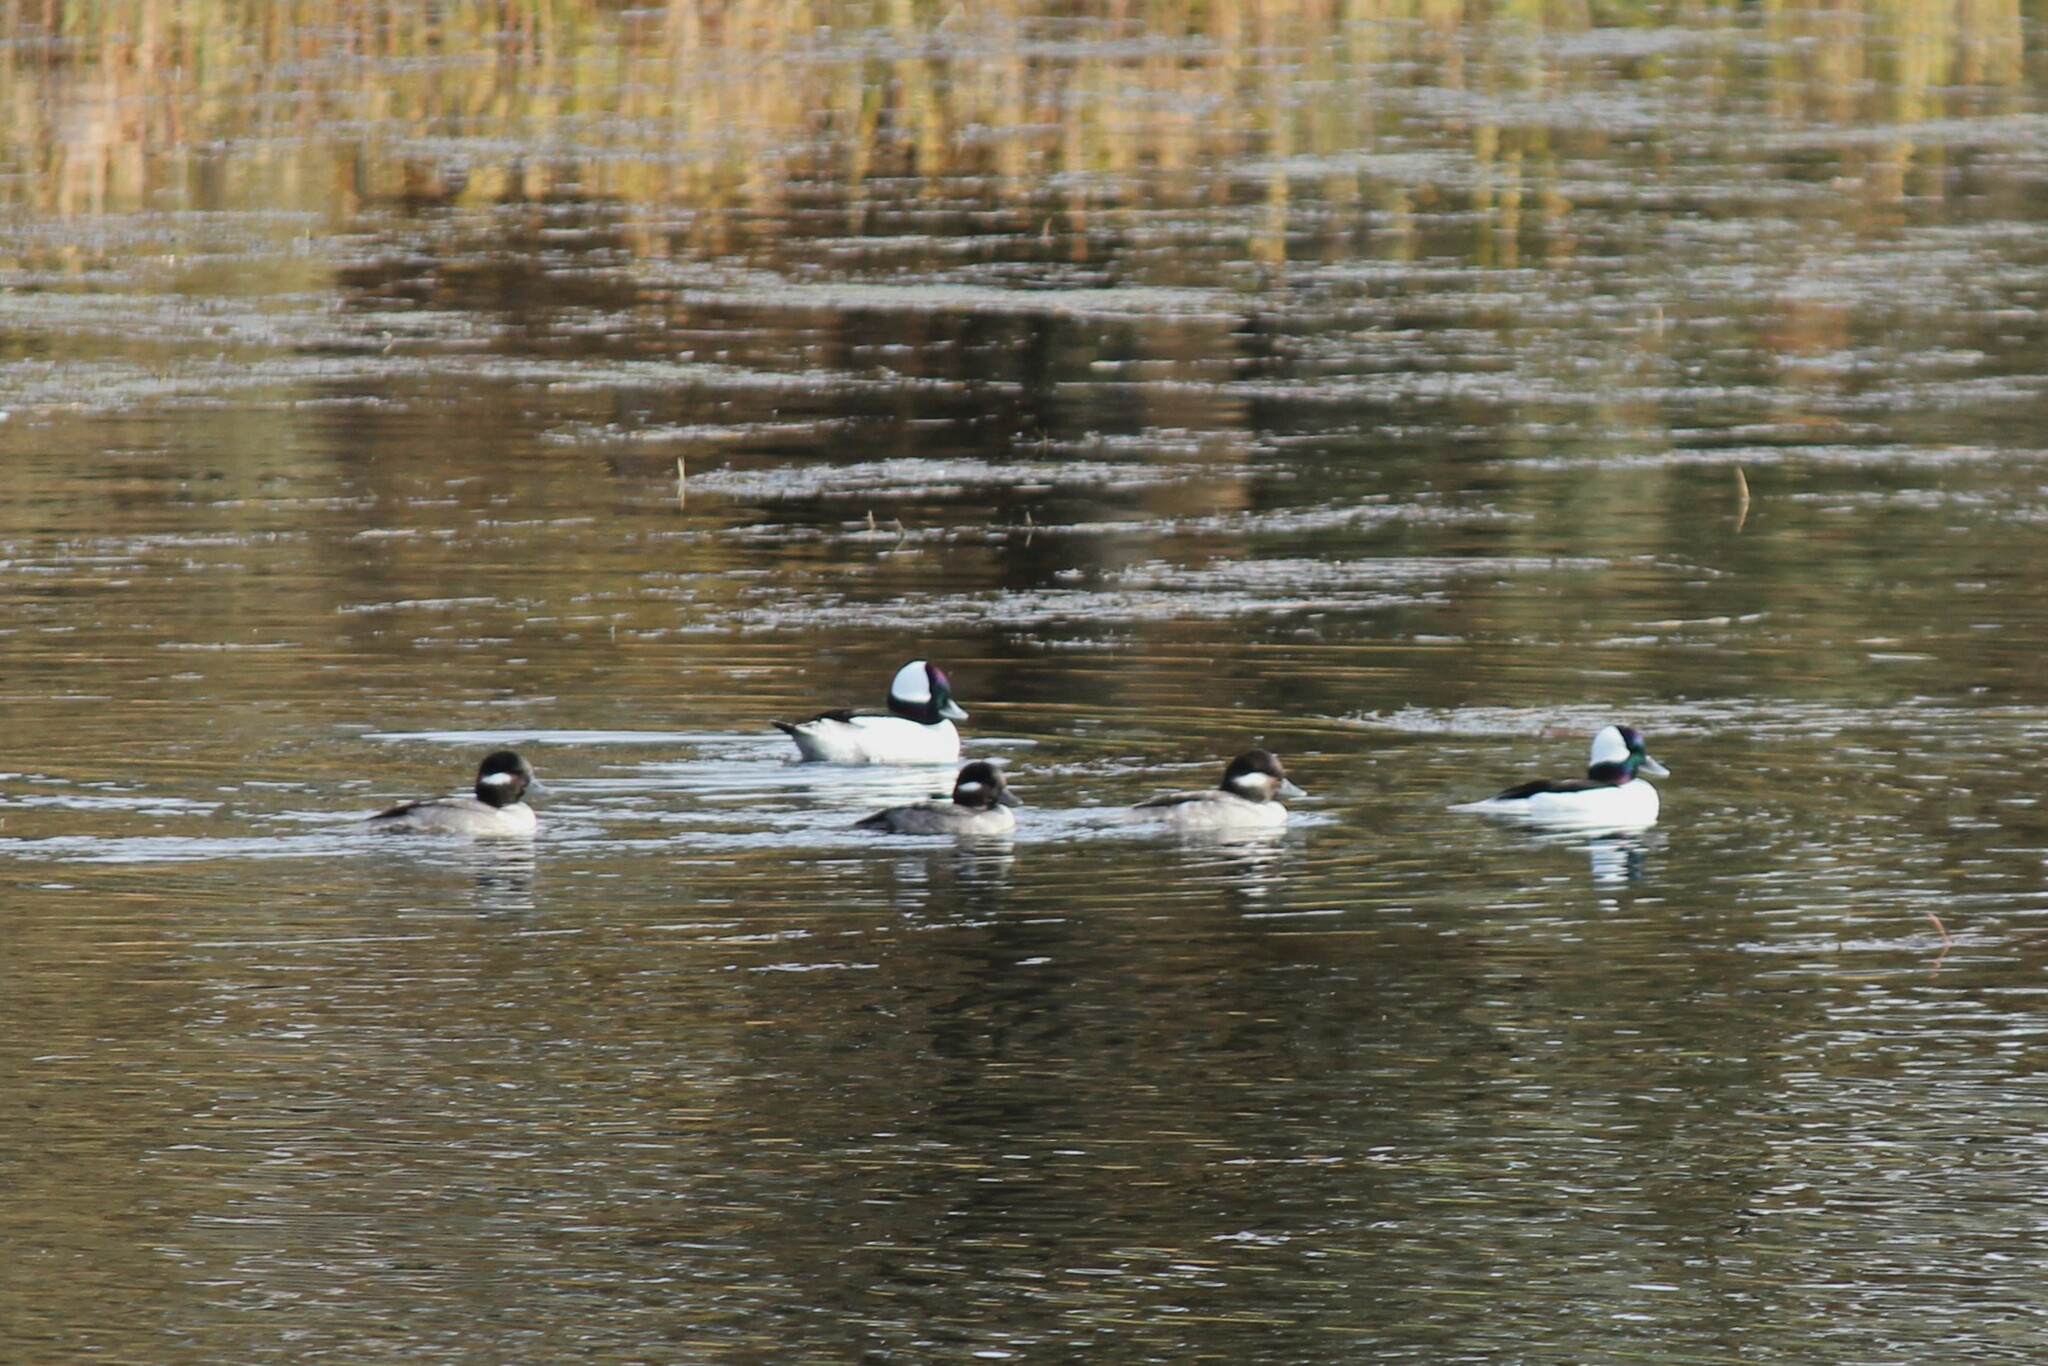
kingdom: Animalia
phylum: Chordata
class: Aves
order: Anseriformes
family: Anatidae
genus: Bucephala
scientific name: Bucephala albeola
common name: Bufflehead
